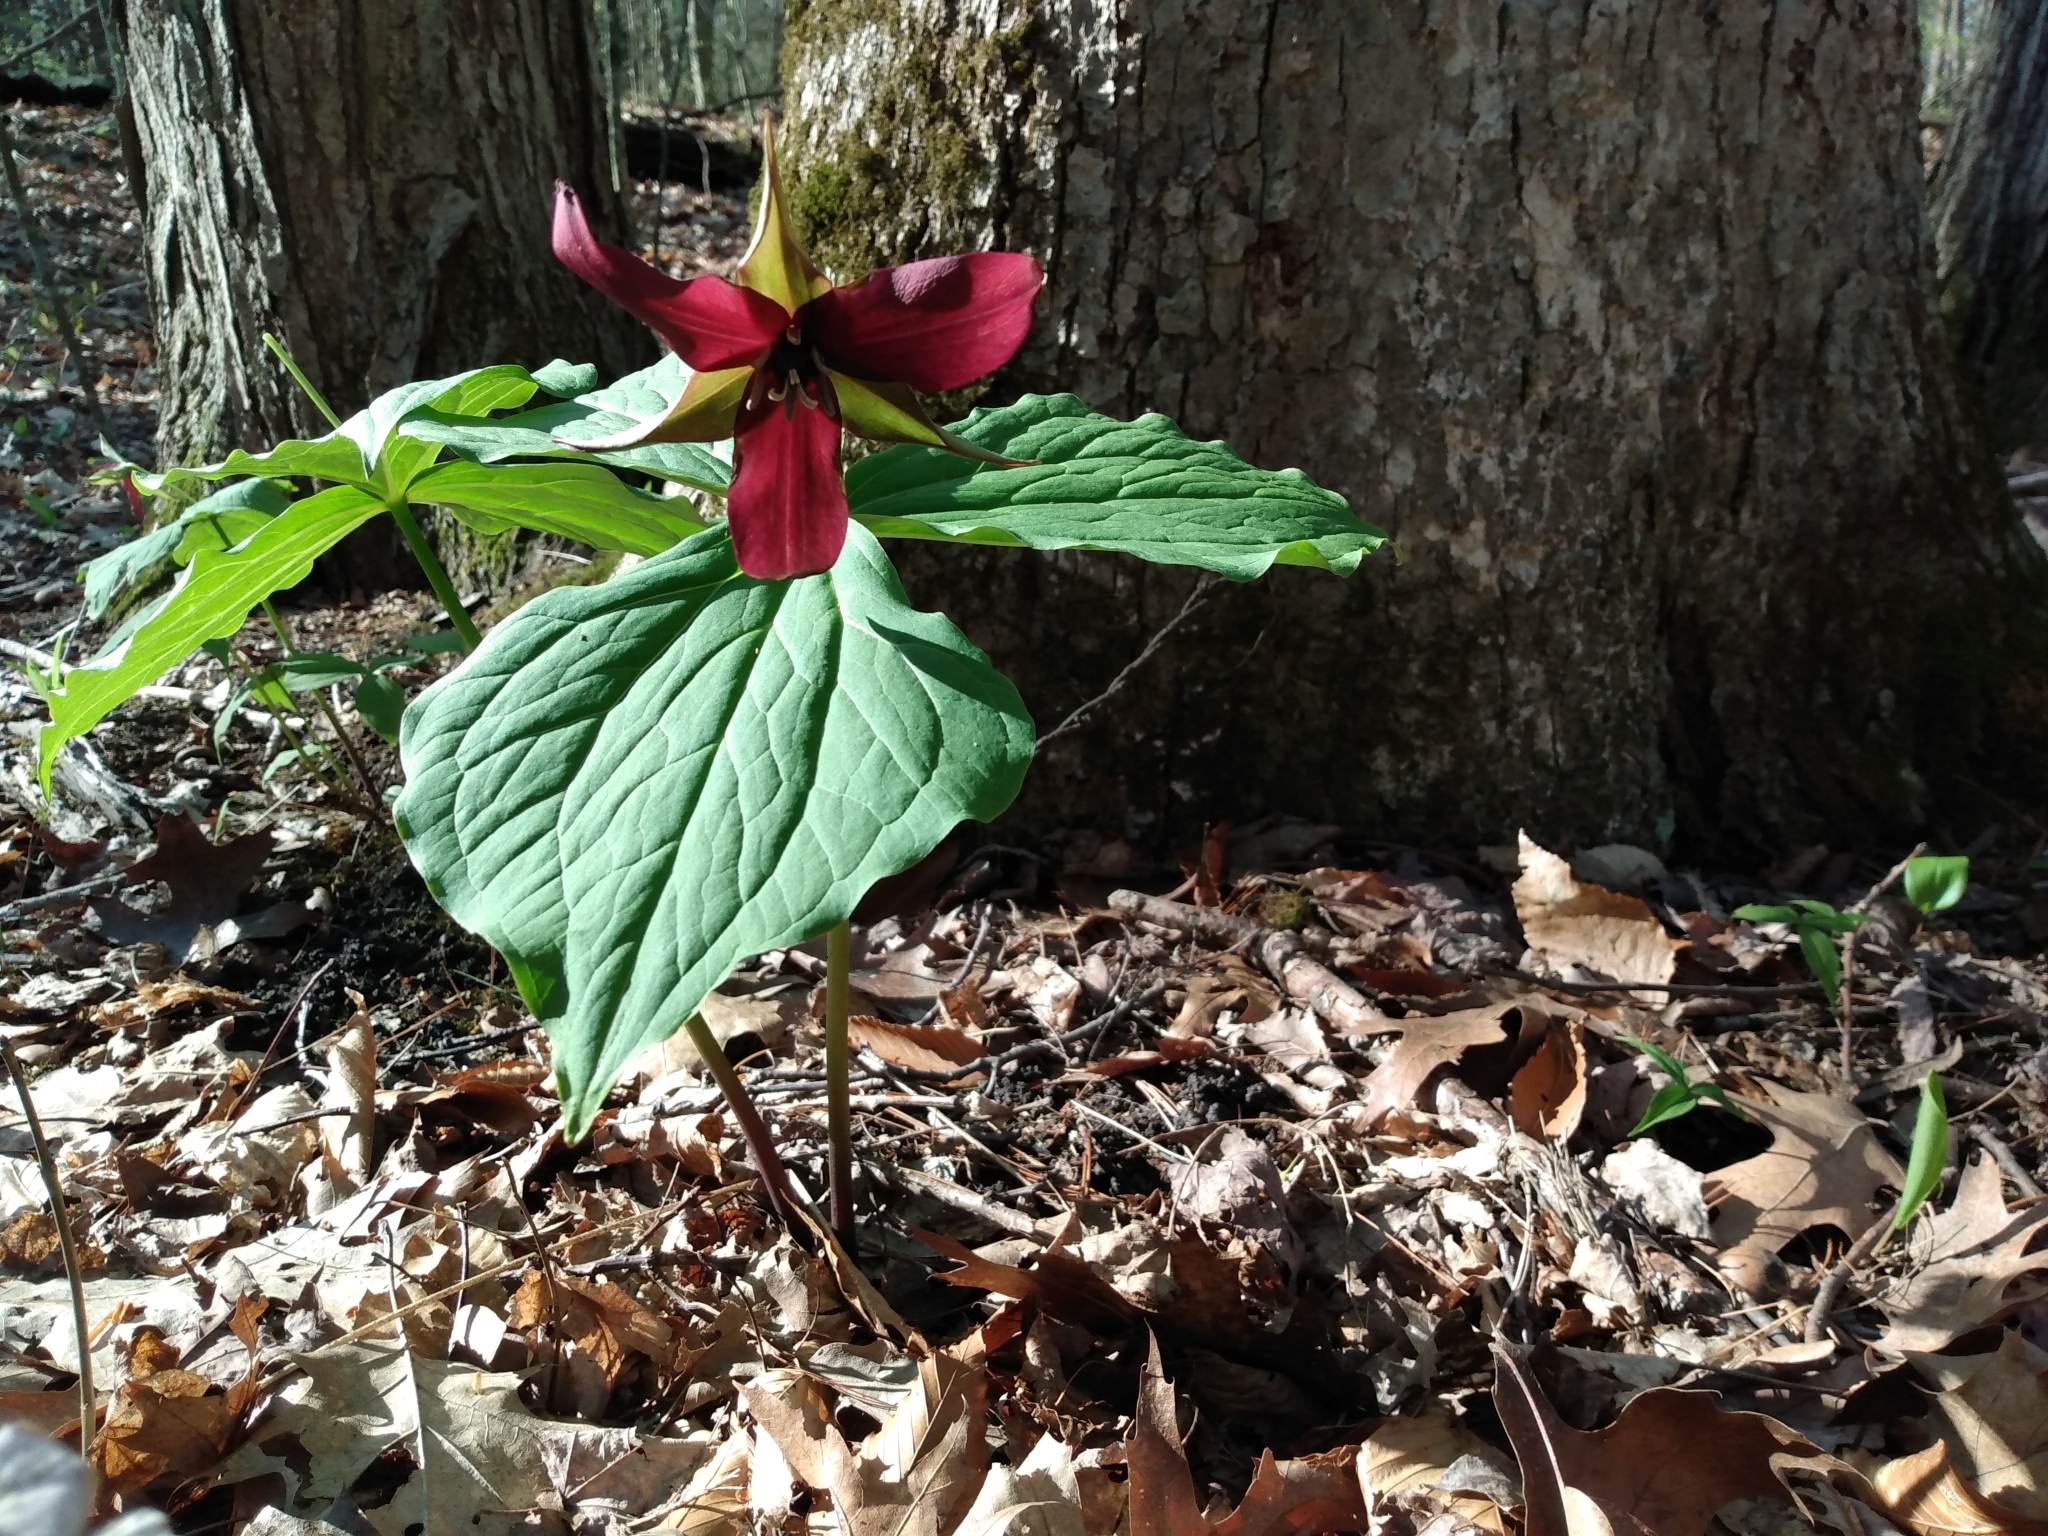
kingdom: Plantae
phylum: Tracheophyta
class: Liliopsida
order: Liliales
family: Melanthiaceae
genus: Trillium
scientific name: Trillium erectum
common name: Purple trillium
